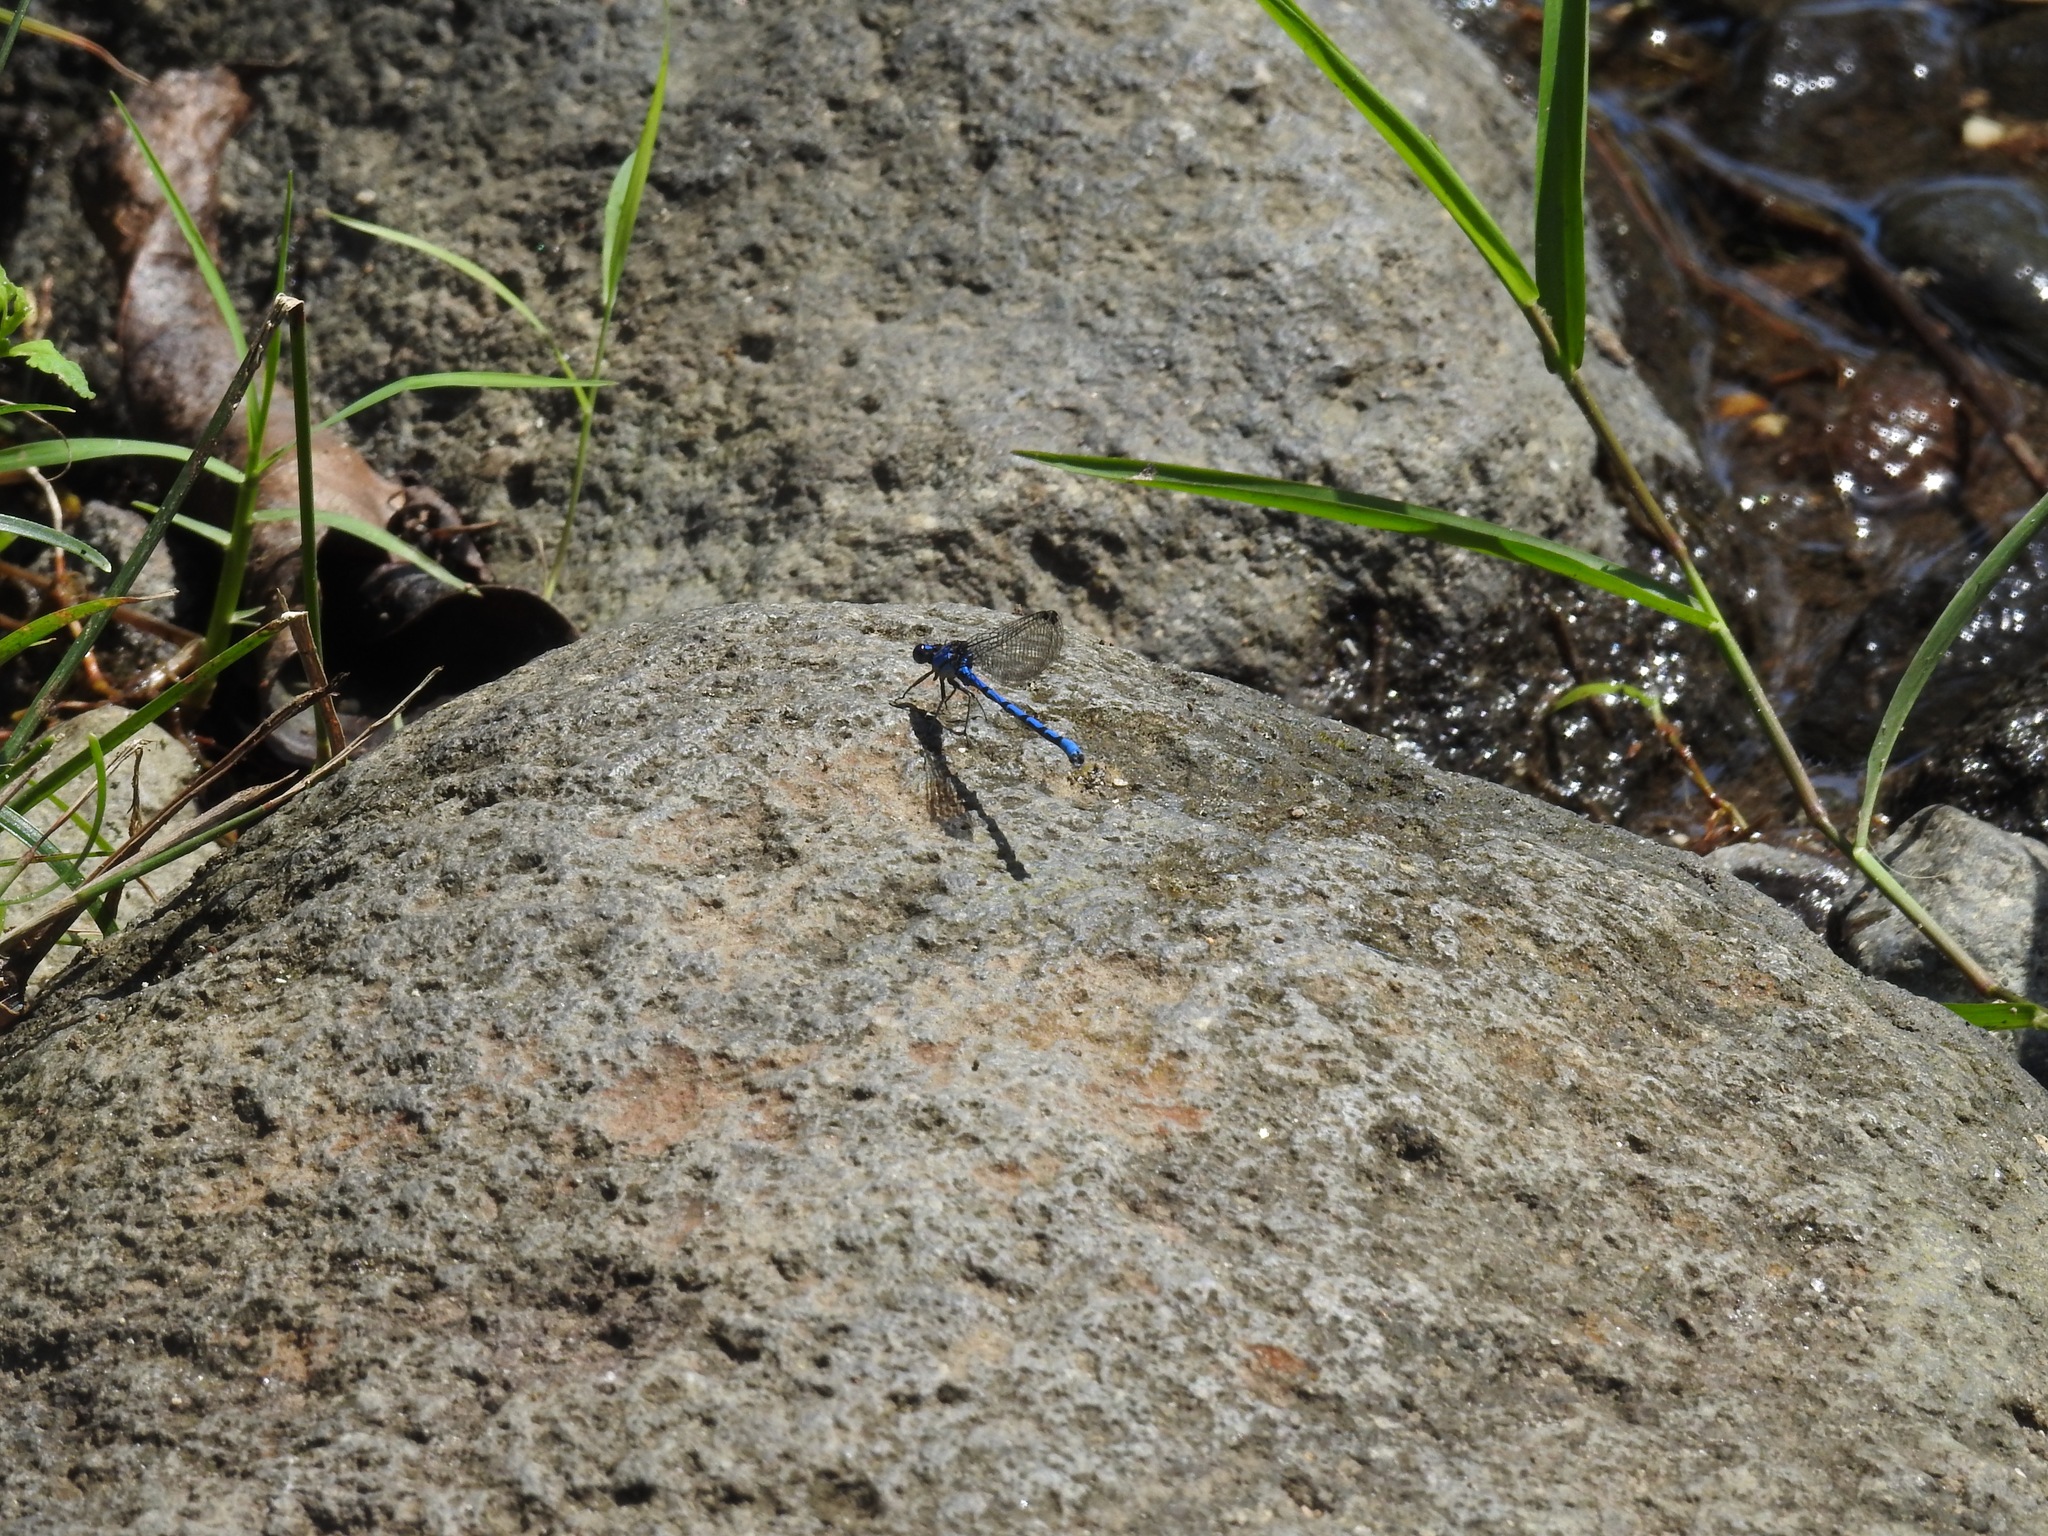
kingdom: Animalia
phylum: Arthropoda
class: Insecta
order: Odonata
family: Coenagrionidae
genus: Argia
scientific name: Argia elongata
